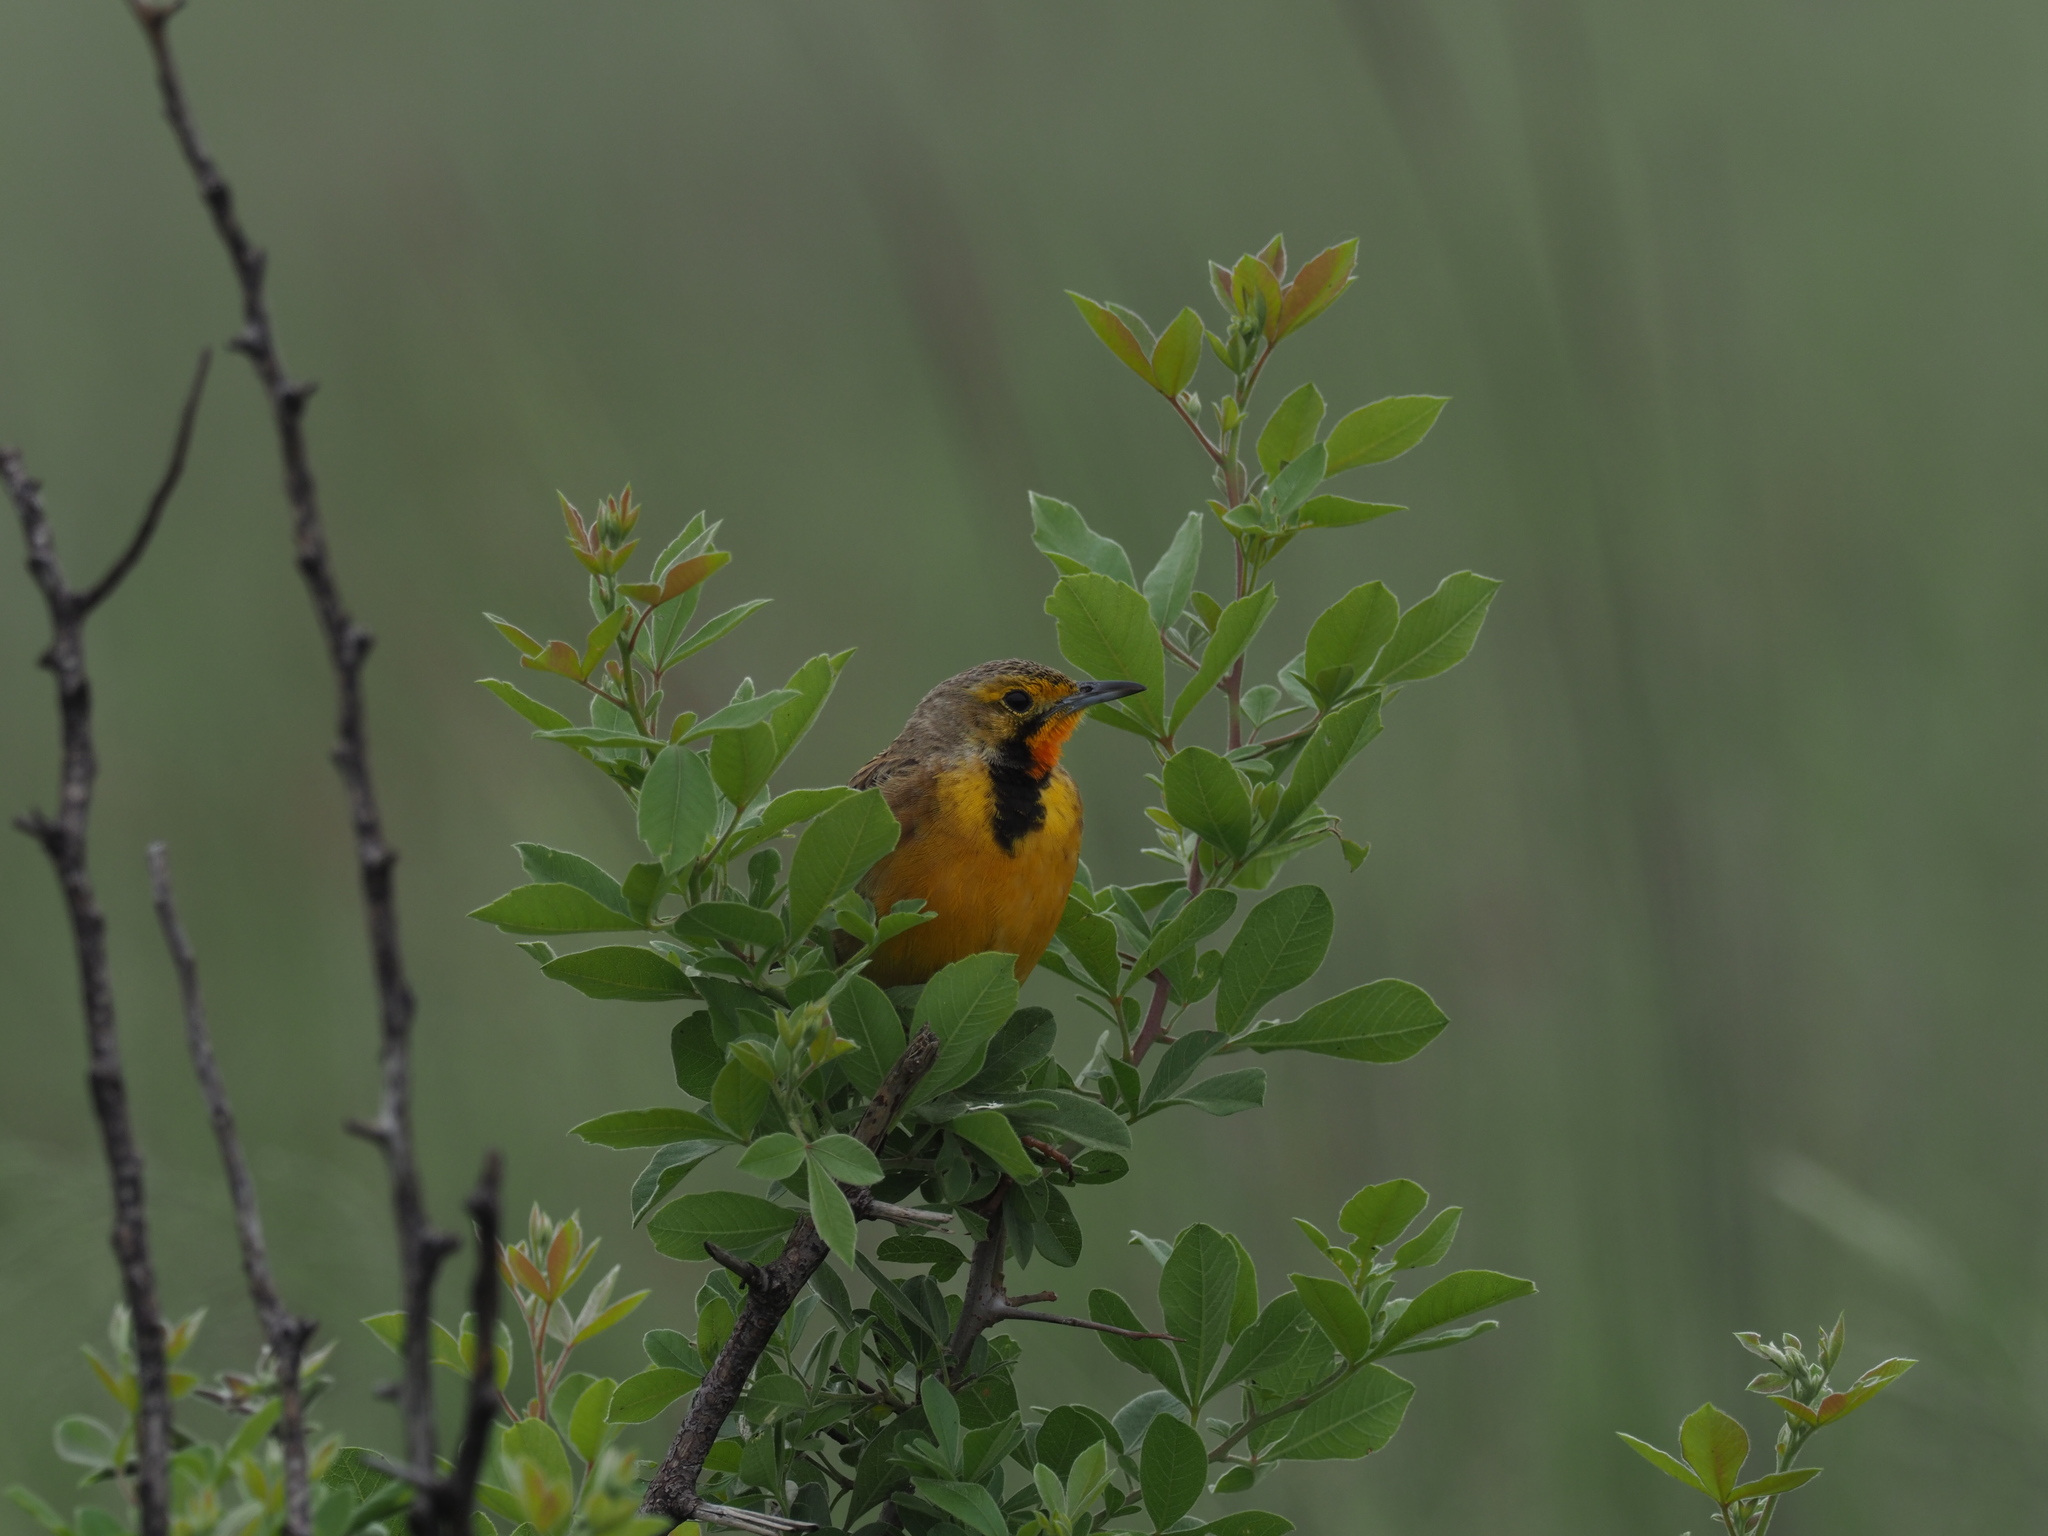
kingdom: Animalia
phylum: Chordata
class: Aves
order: Passeriformes
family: Motacillidae
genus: Macronyx
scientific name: Macronyx capensis
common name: Cape longclaw
